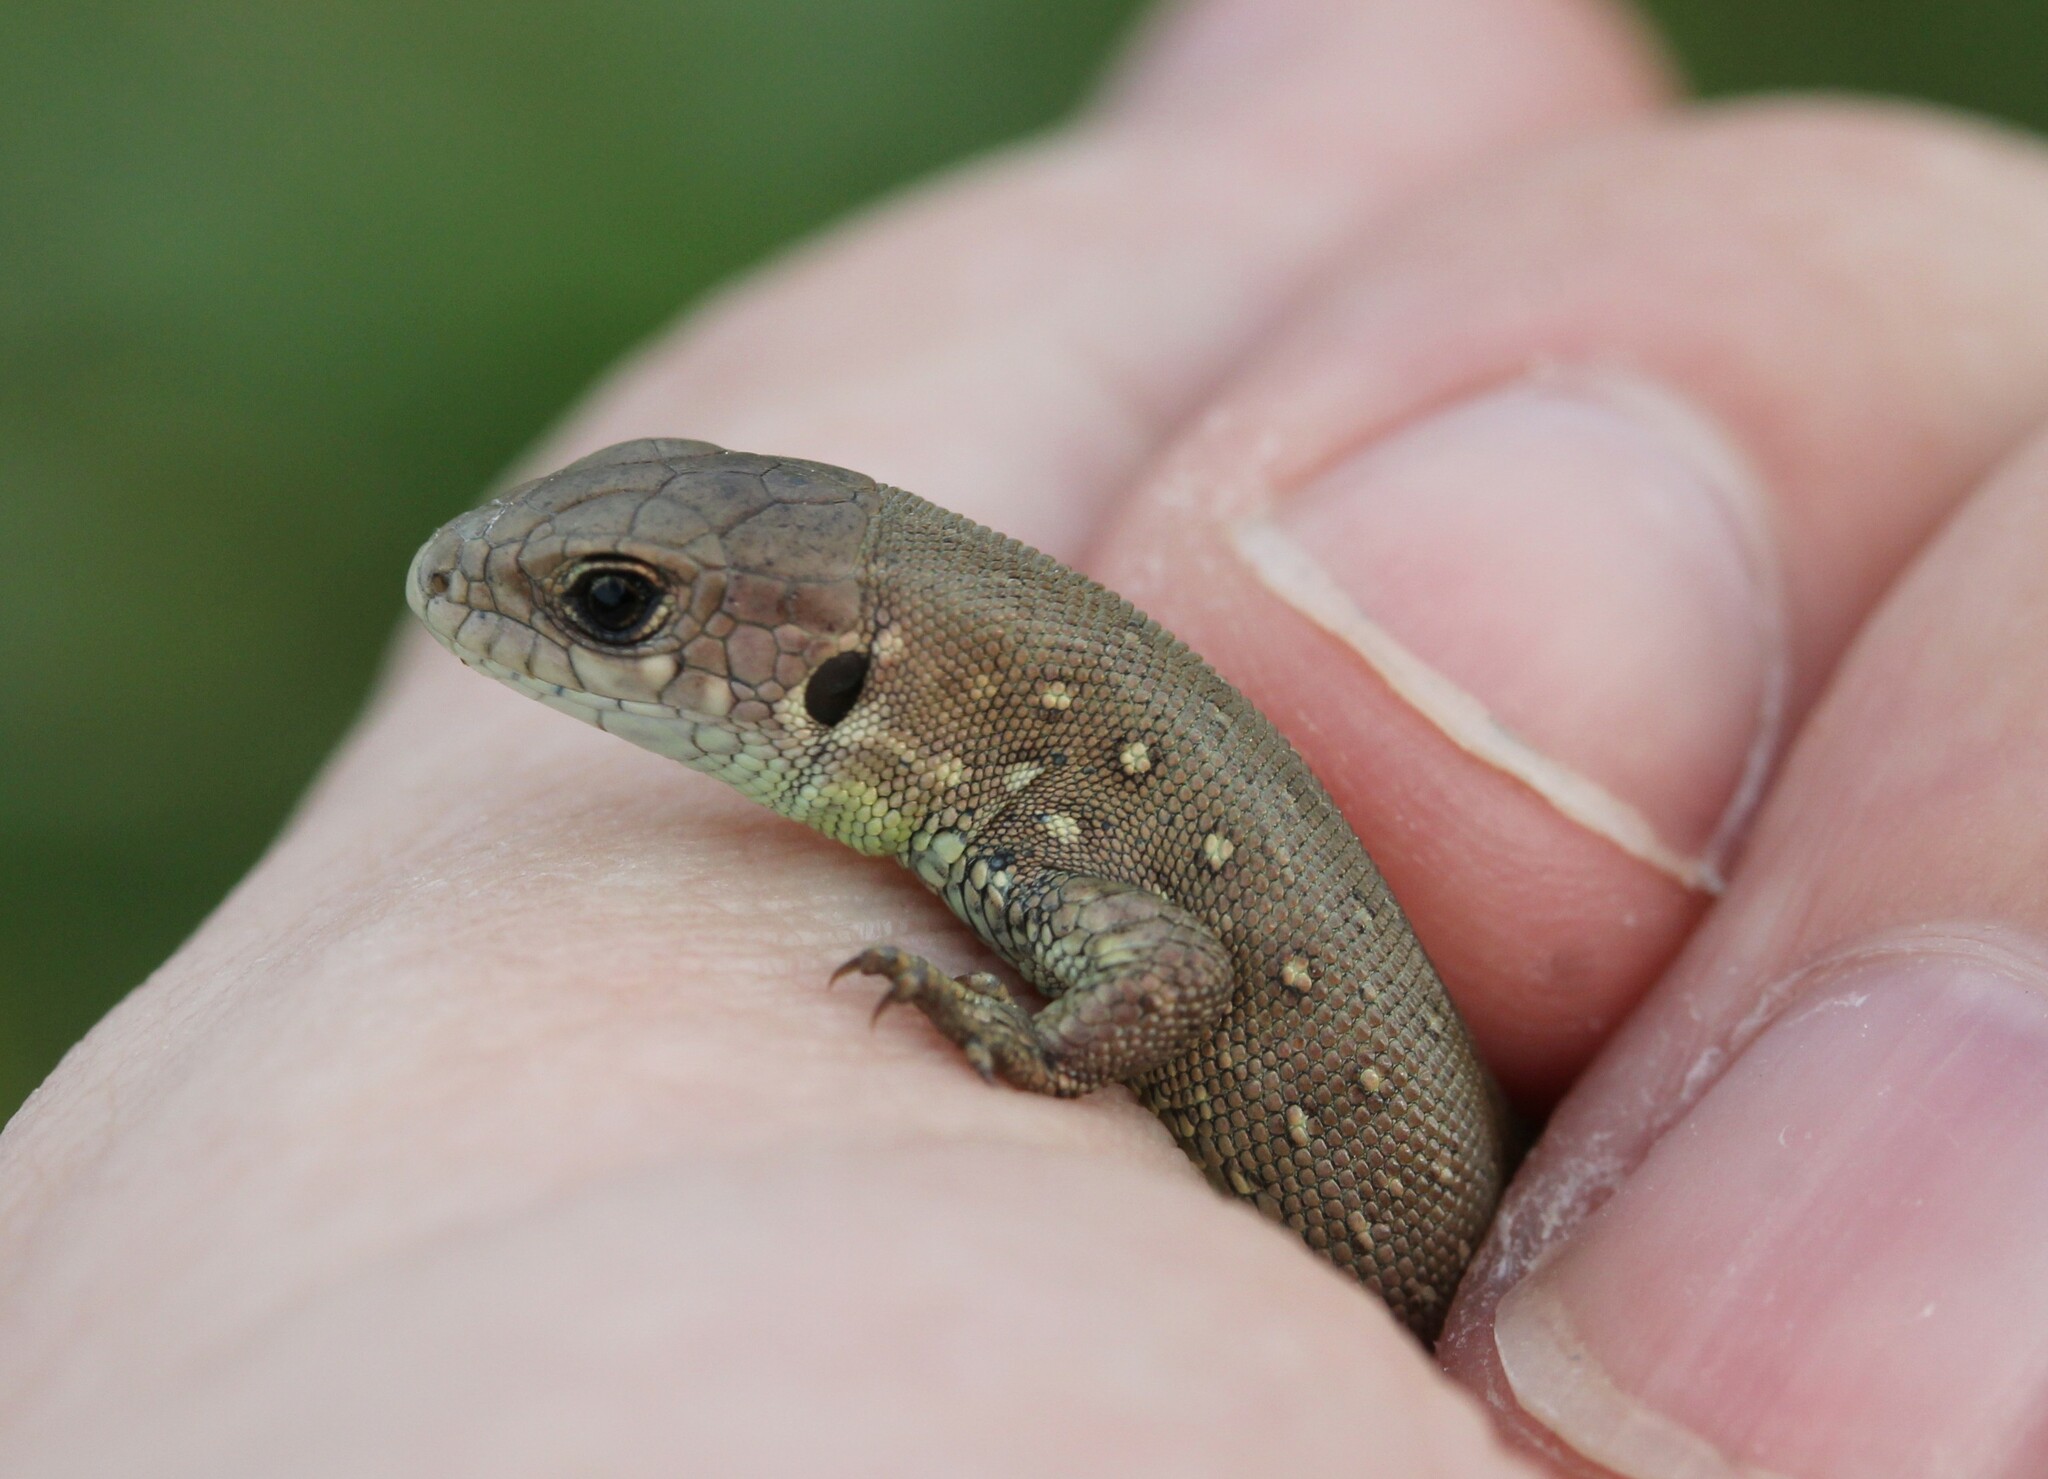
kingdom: Animalia
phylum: Chordata
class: Squamata
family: Lacertidae
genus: Lacerta
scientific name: Lacerta agilis
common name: Sand lizard
